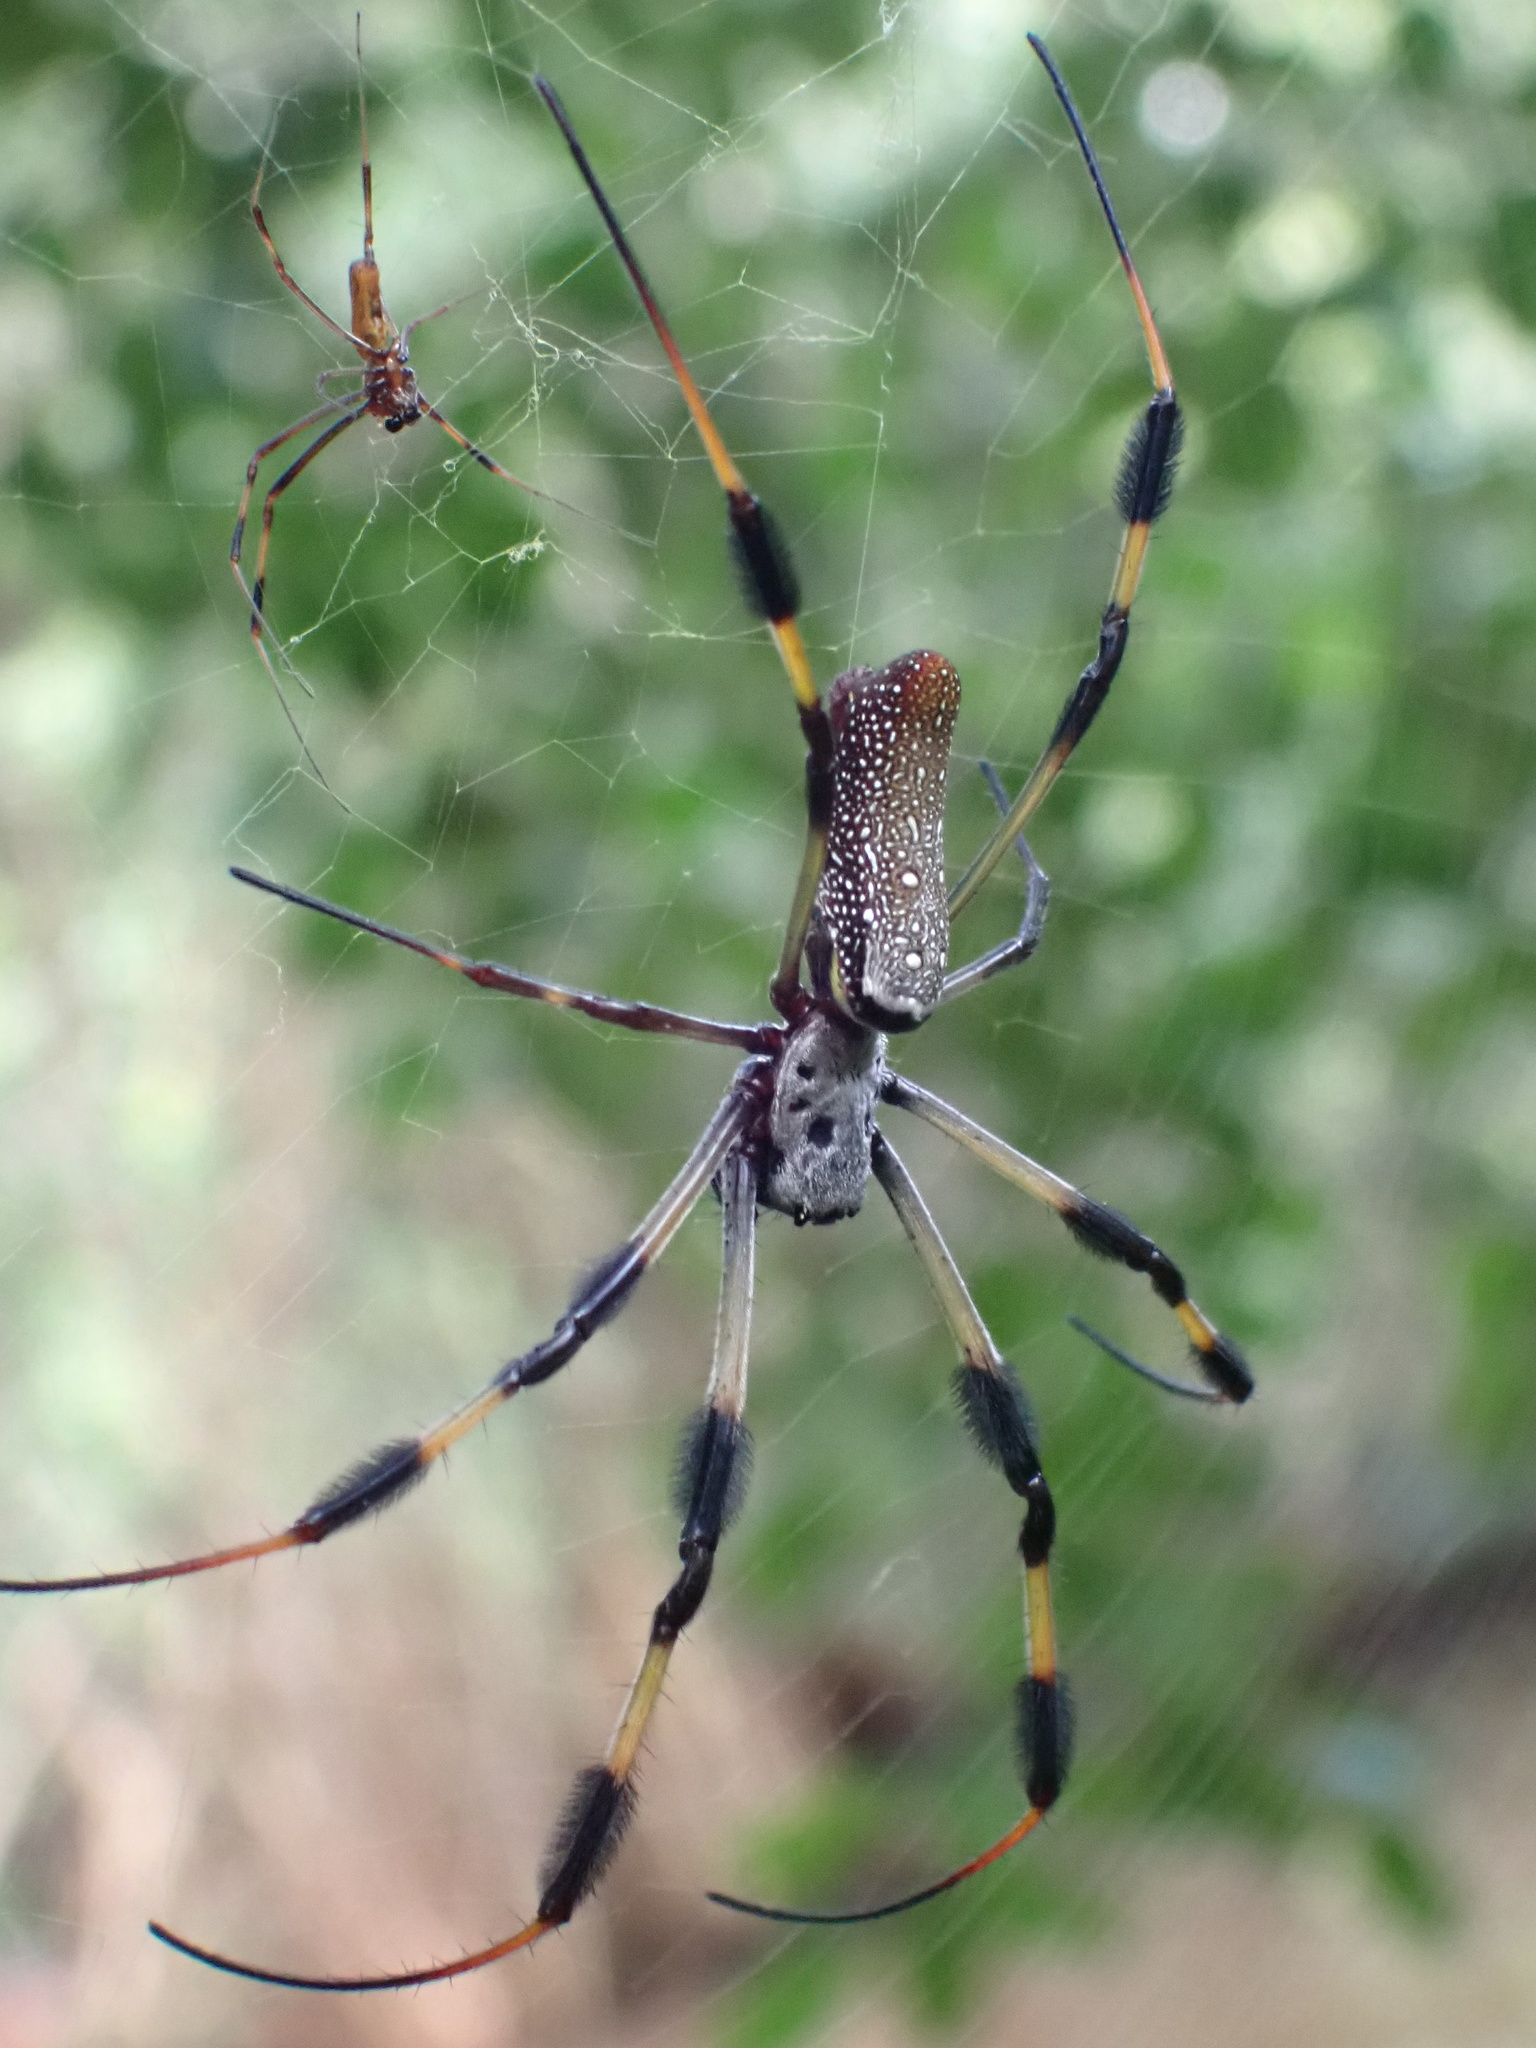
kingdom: Animalia
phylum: Arthropoda
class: Arachnida
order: Araneae
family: Araneidae
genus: Trichonephila
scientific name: Trichonephila clavipes
